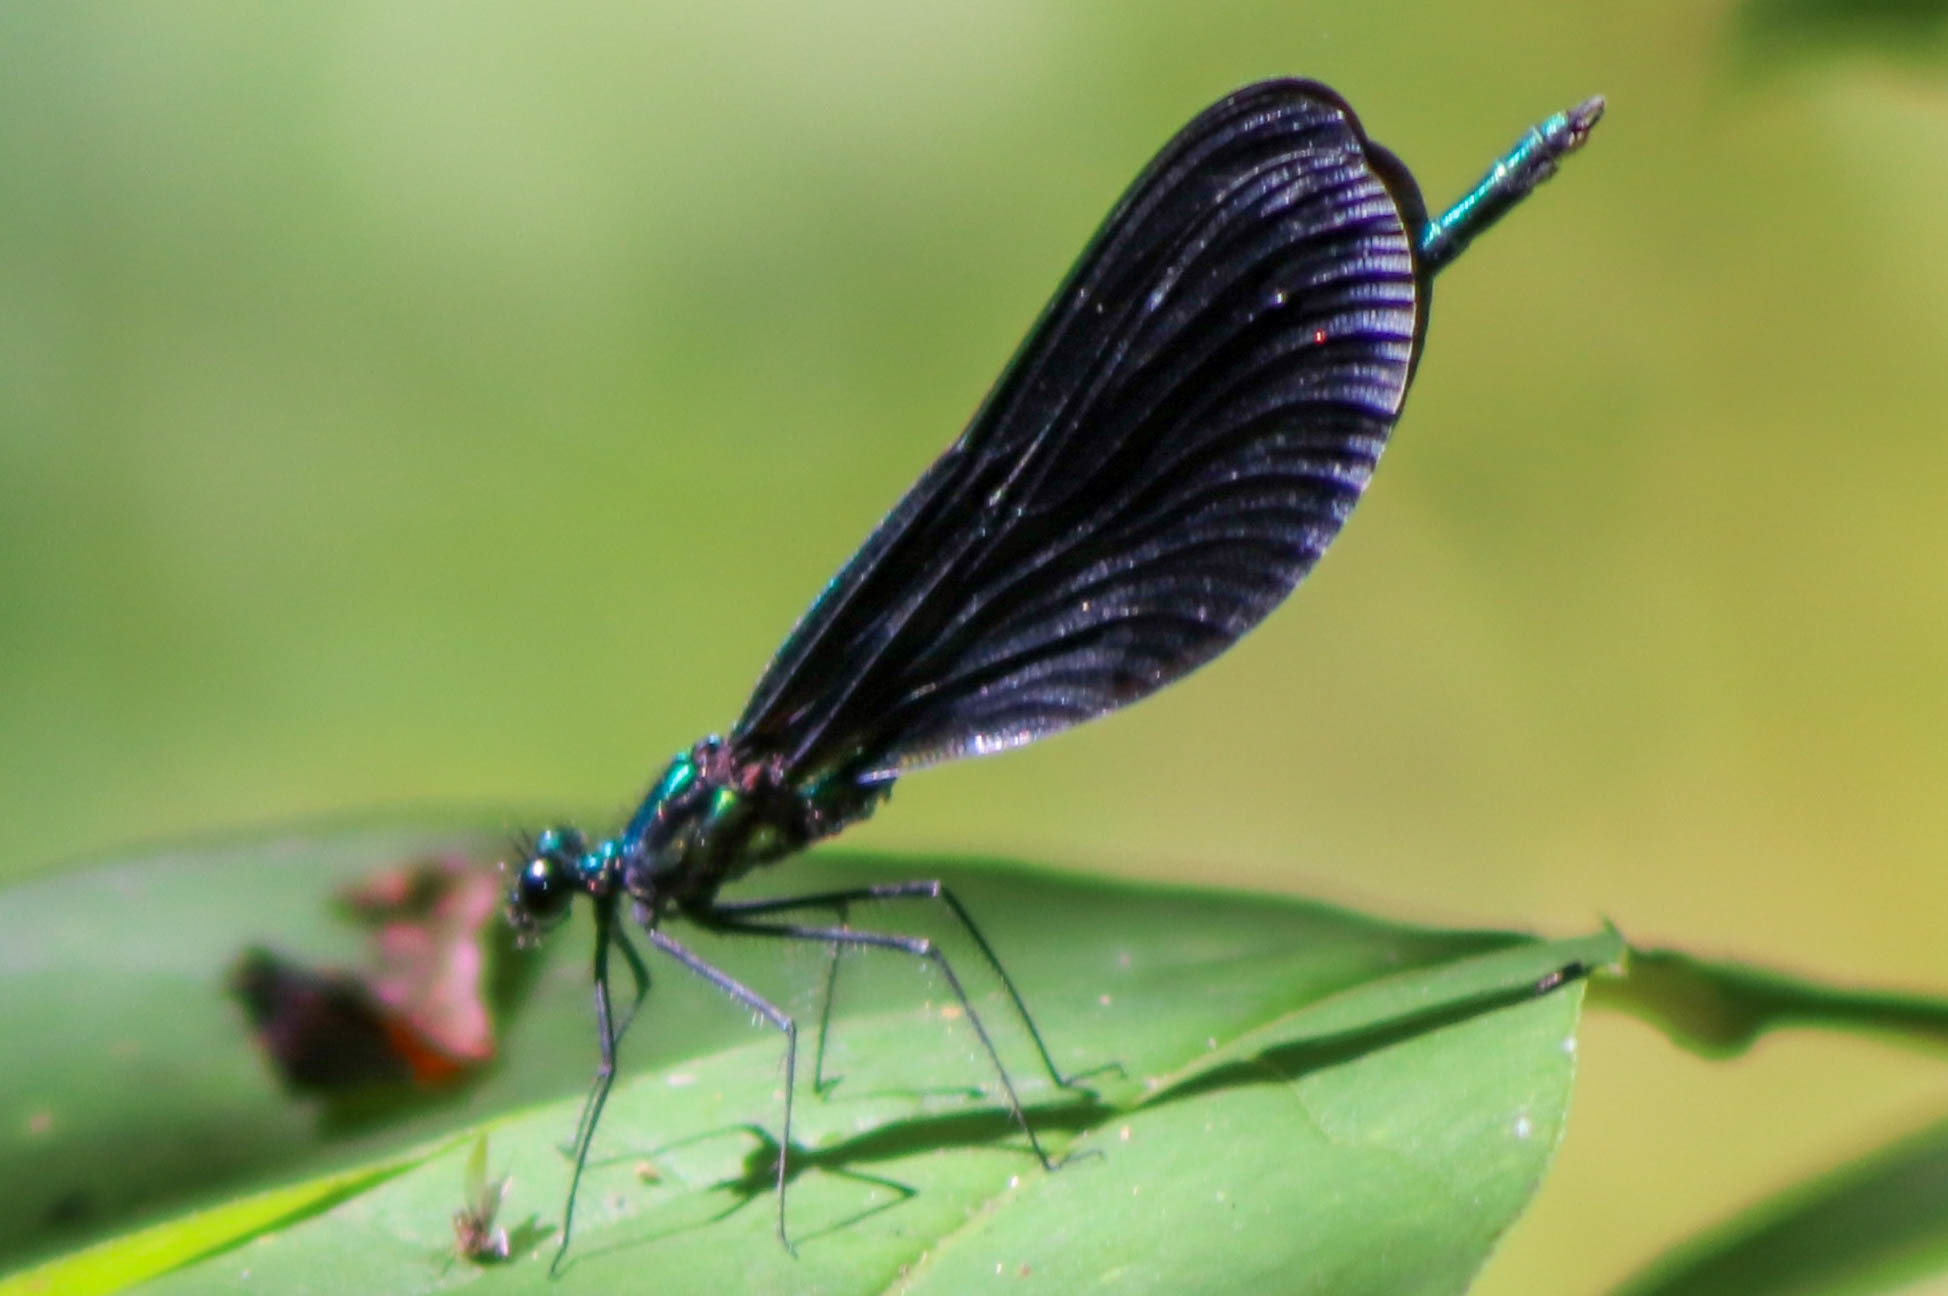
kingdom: Animalia
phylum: Arthropoda
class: Insecta
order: Odonata
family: Calopterygidae
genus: Calopteryx
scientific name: Calopteryx maculata
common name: Ebony jewelwing
